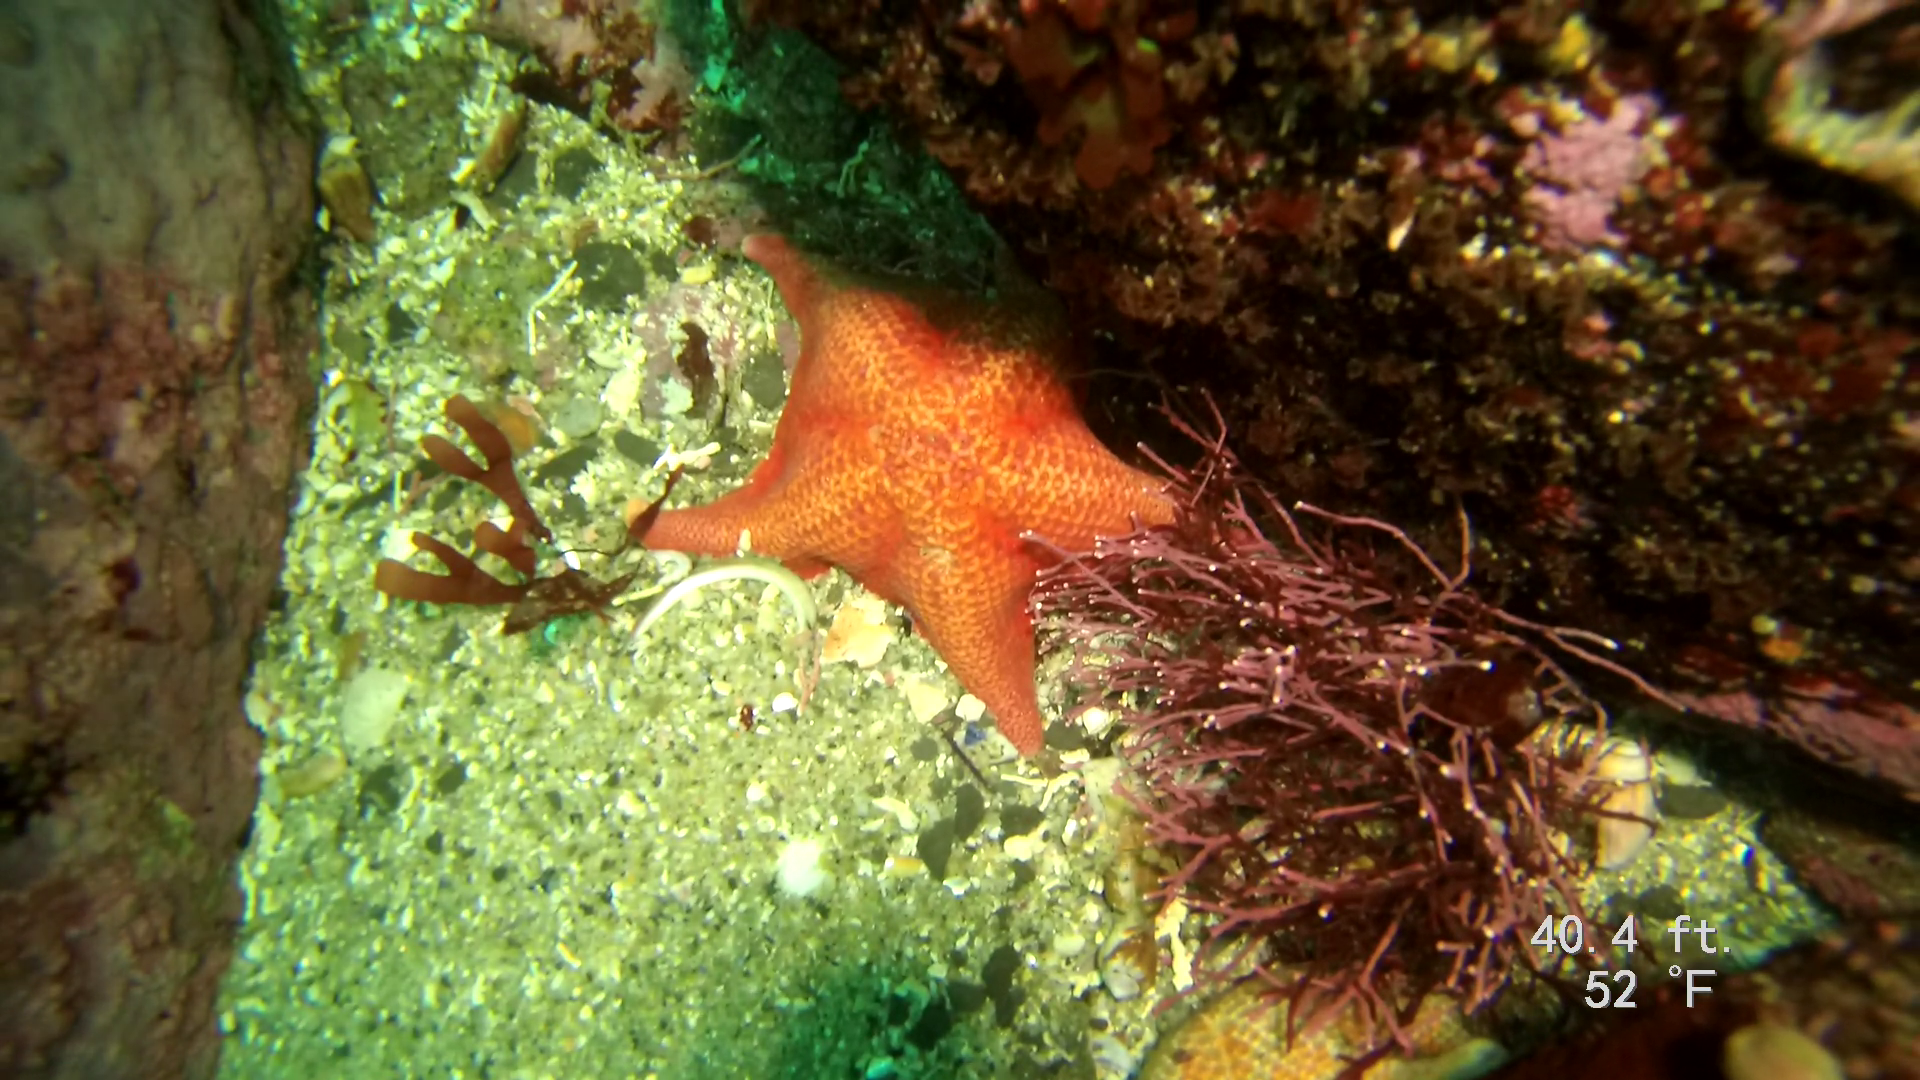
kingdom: Animalia
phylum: Echinodermata
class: Asteroidea
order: Valvatida
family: Asterinidae
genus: Patiria
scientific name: Patiria miniata
